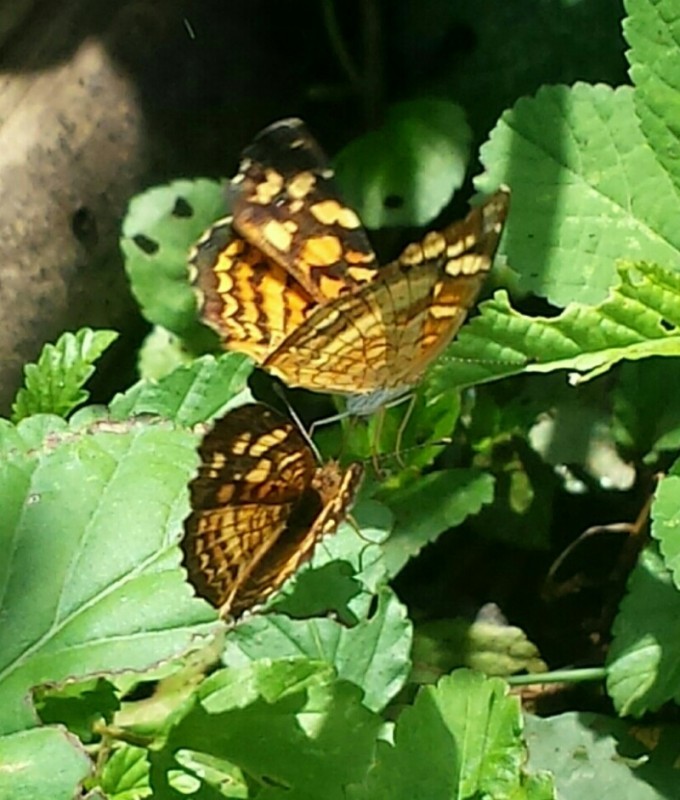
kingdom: Animalia
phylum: Arthropoda
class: Insecta
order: Lepidoptera
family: Nymphalidae
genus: Anthanassa
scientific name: Anthanassa frisia
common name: Cuban crescent
